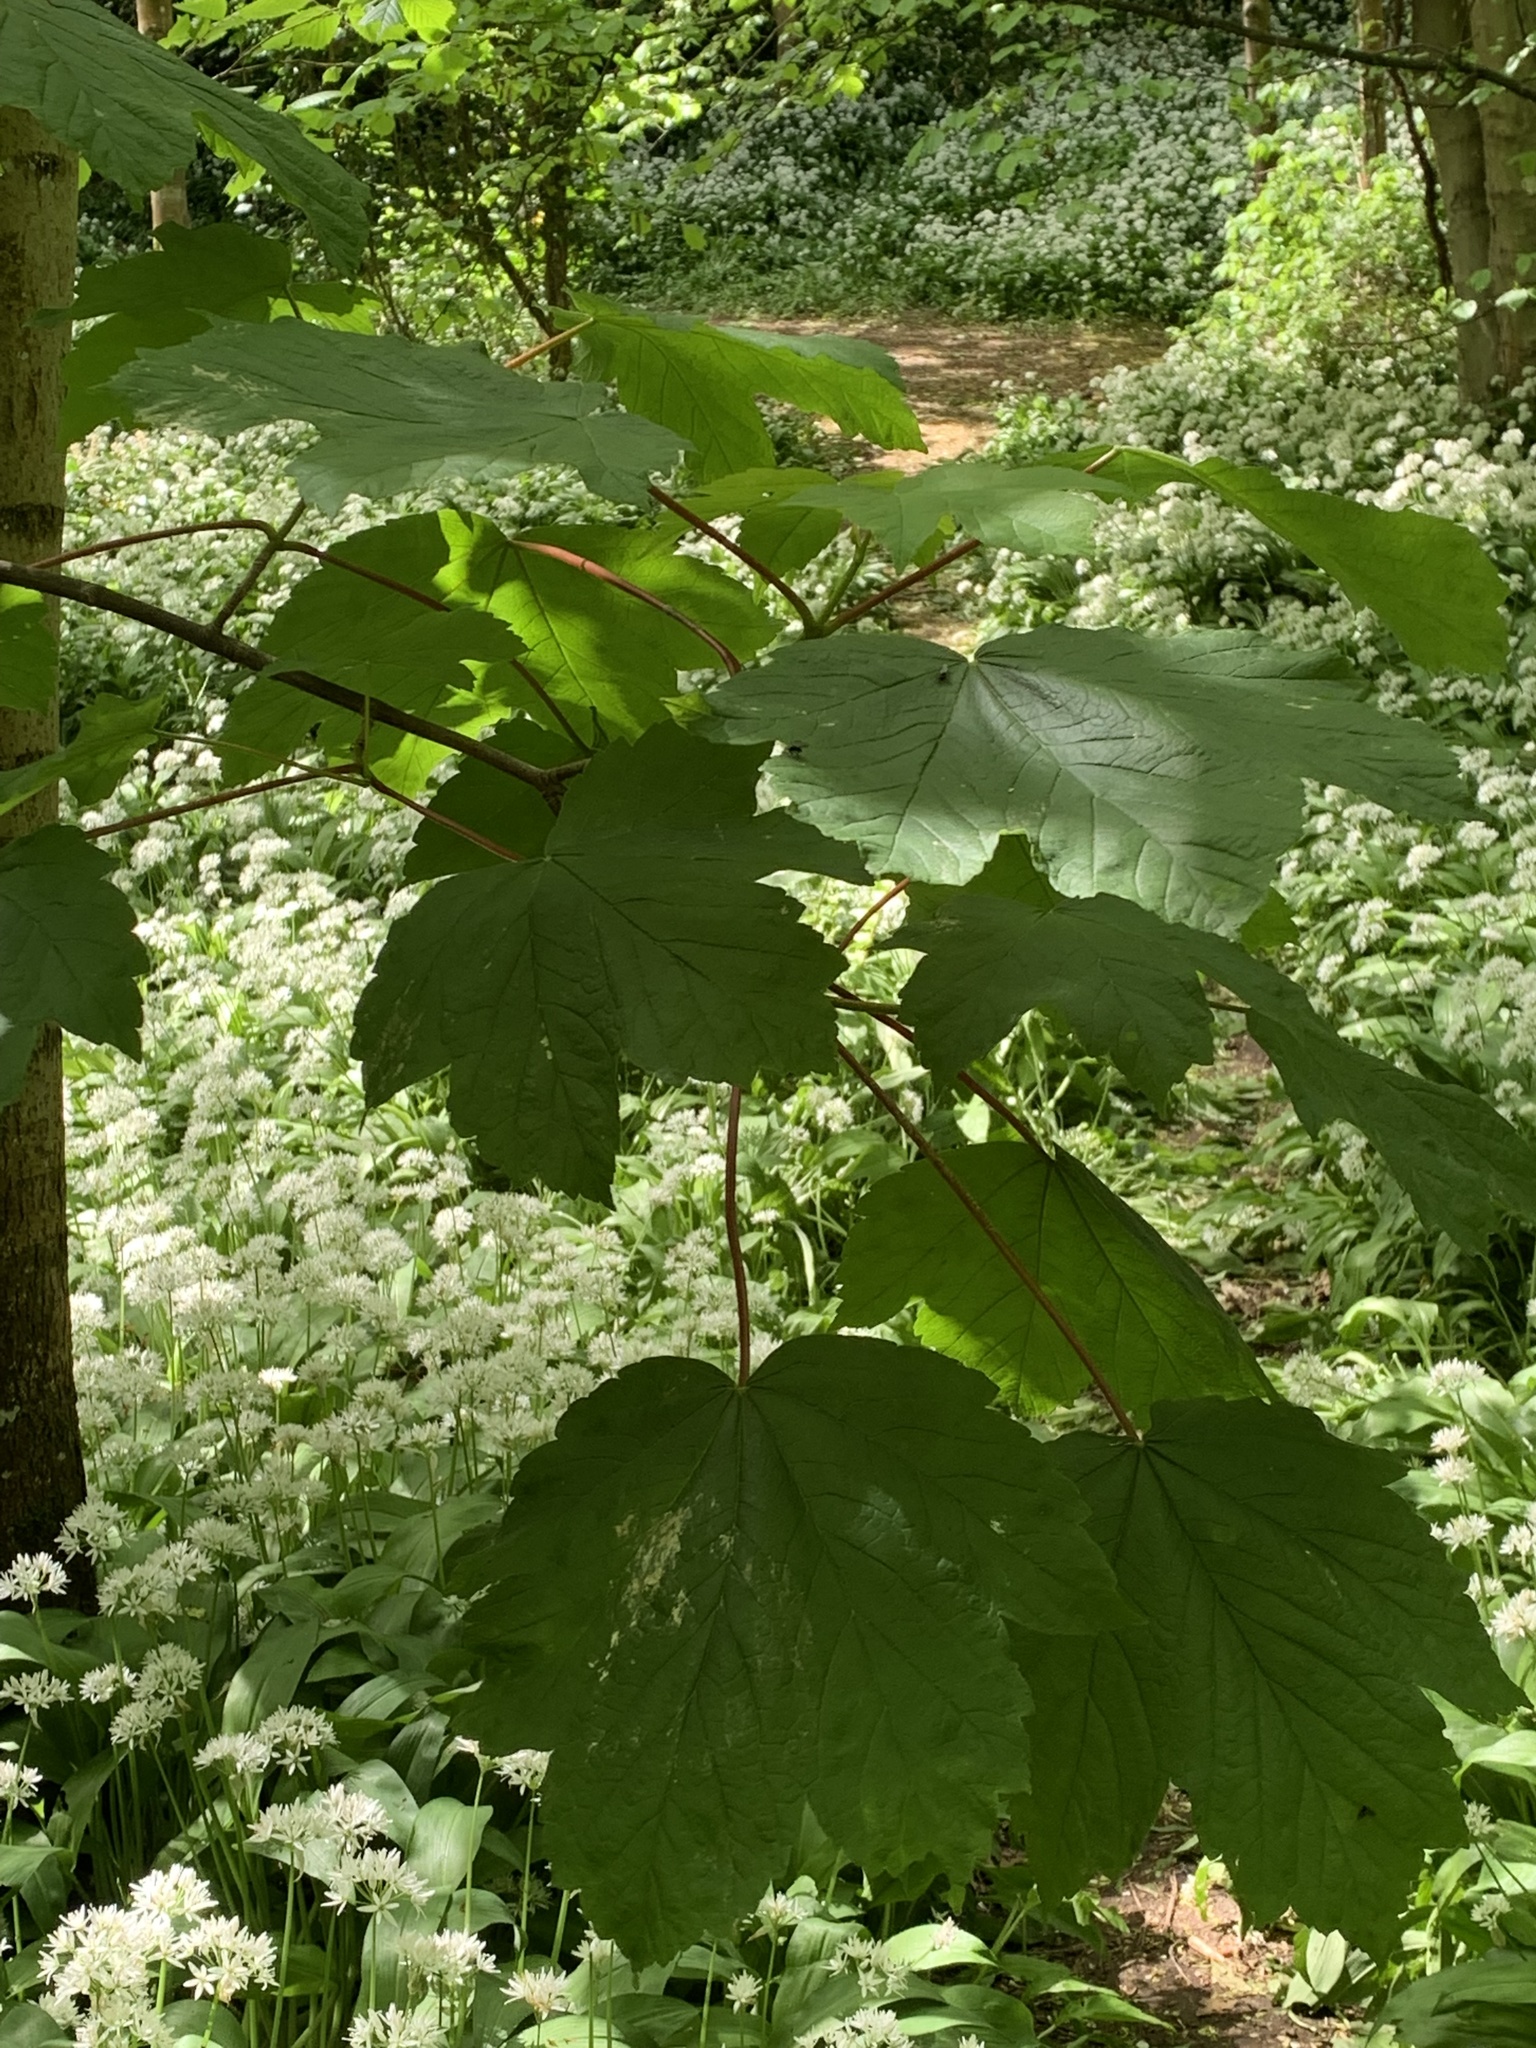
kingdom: Plantae
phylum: Tracheophyta
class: Magnoliopsida
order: Sapindales
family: Sapindaceae
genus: Acer
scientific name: Acer pseudoplatanus
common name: Sycamore
